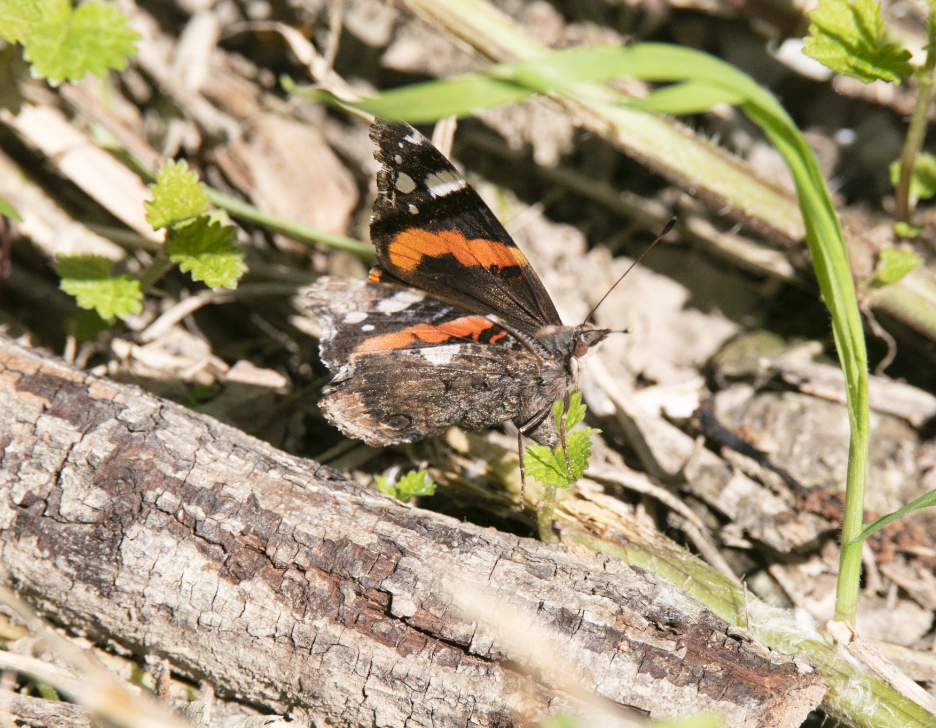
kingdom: Animalia
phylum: Arthropoda
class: Insecta
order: Lepidoptera
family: Nymphalidae
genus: Vanessa
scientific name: Vanessa atalanta
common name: Red admiral
